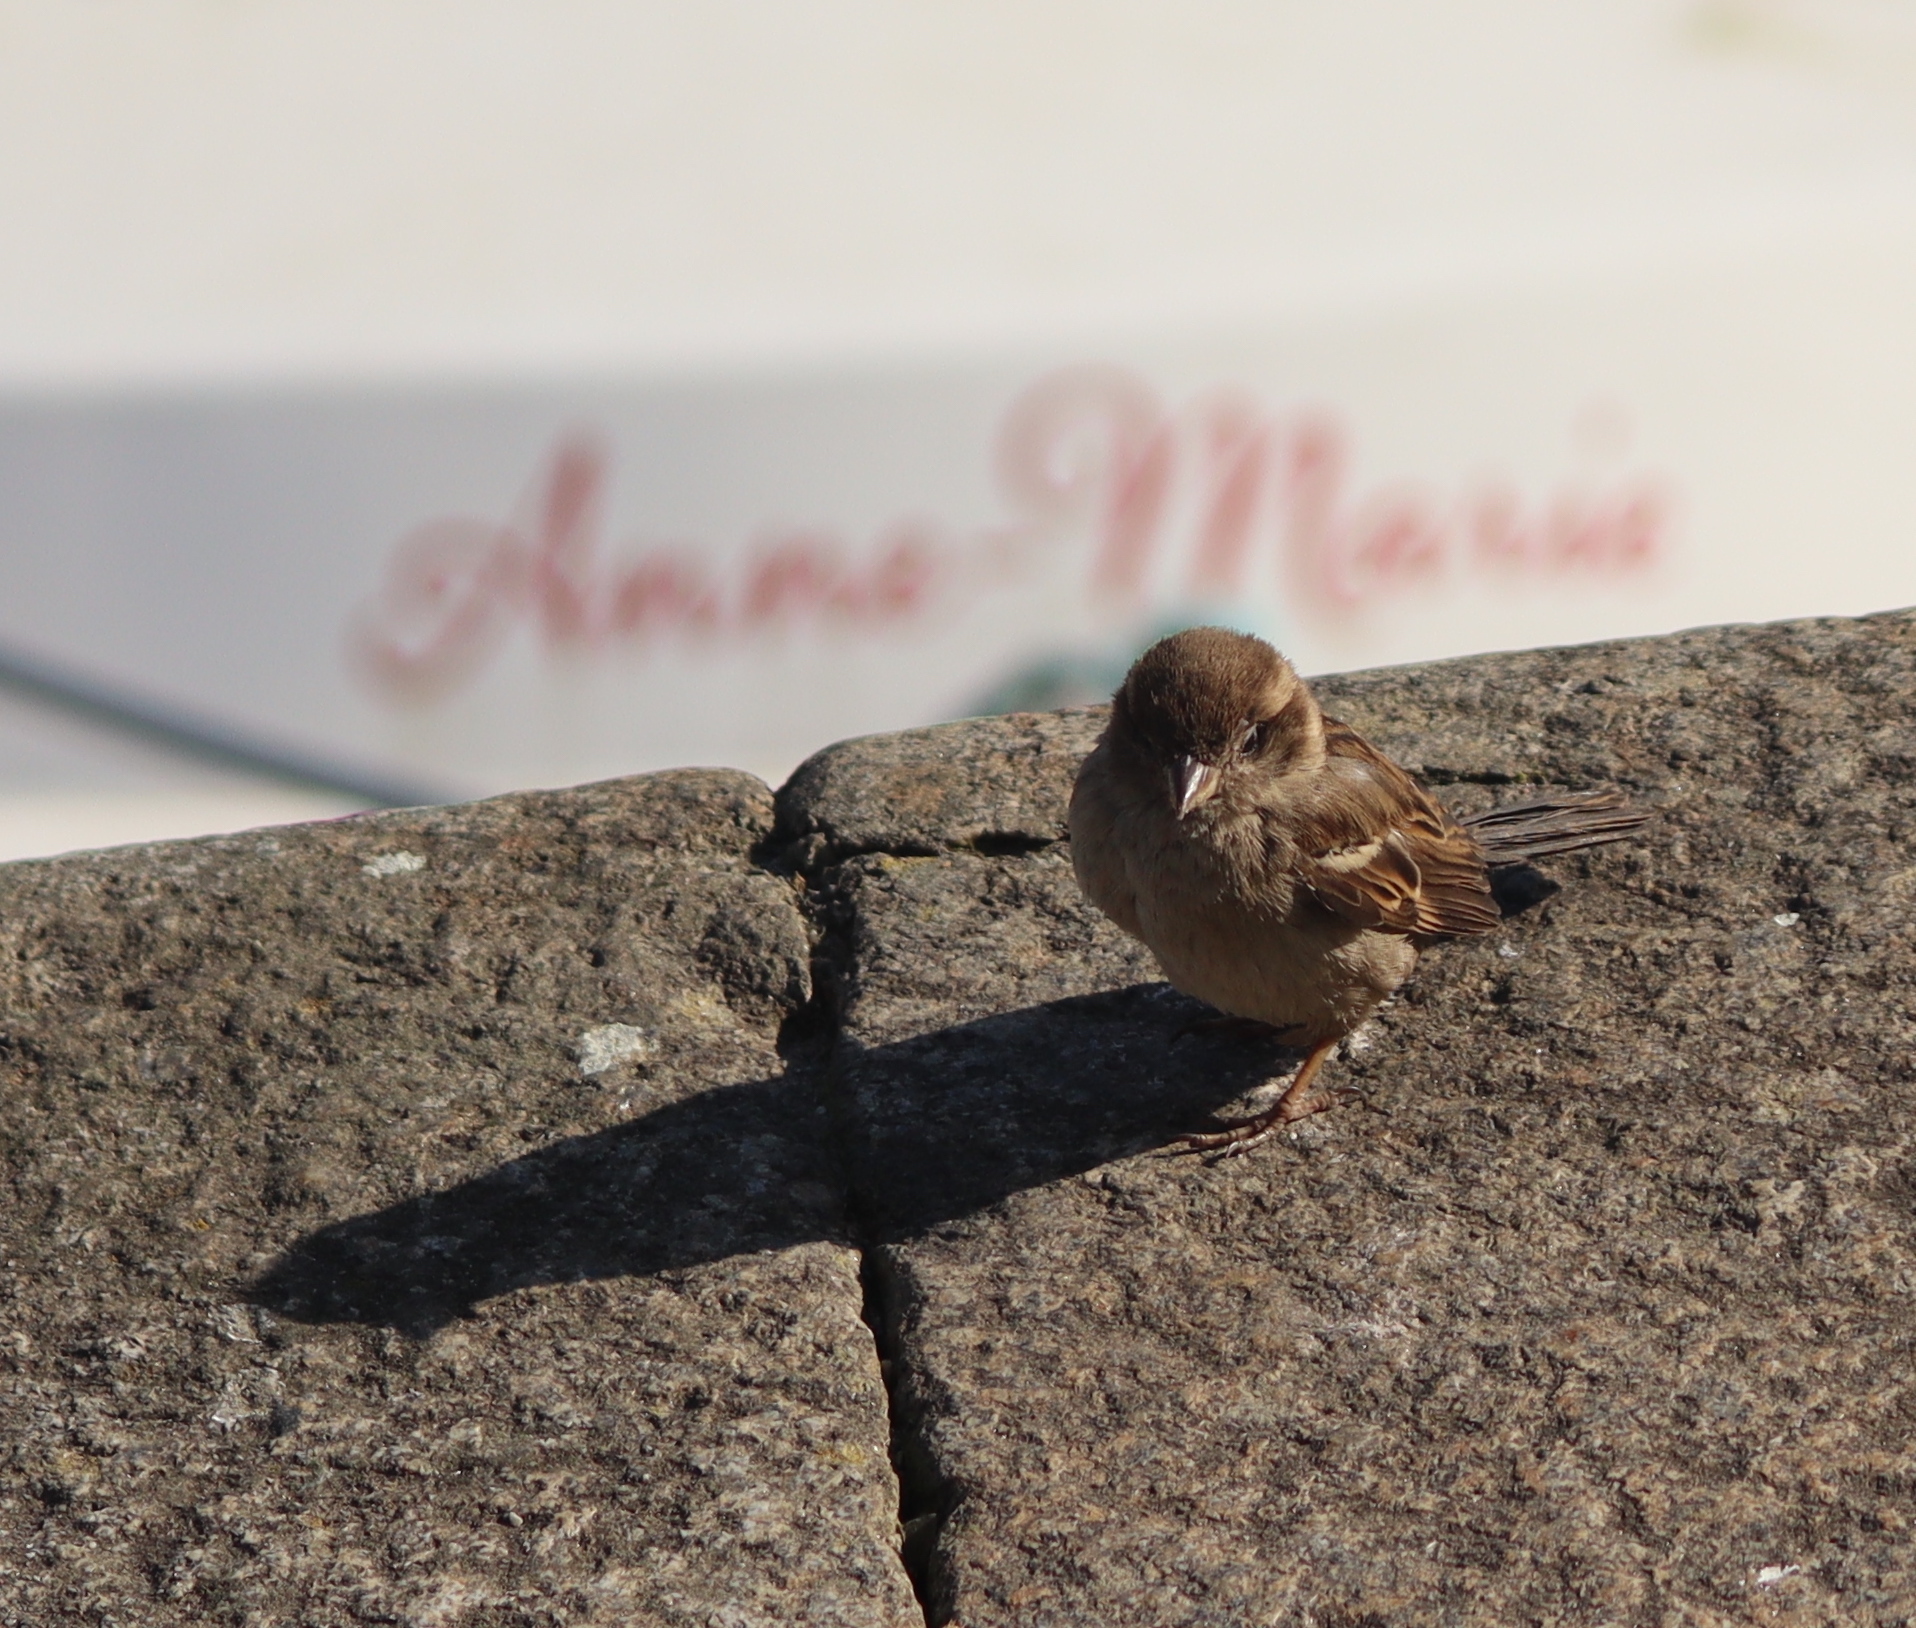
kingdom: Animalia
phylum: Chordata
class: Aves
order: Passeriformes
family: Passeridae
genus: Passer
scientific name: Passer domesticus
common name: House sparrow
